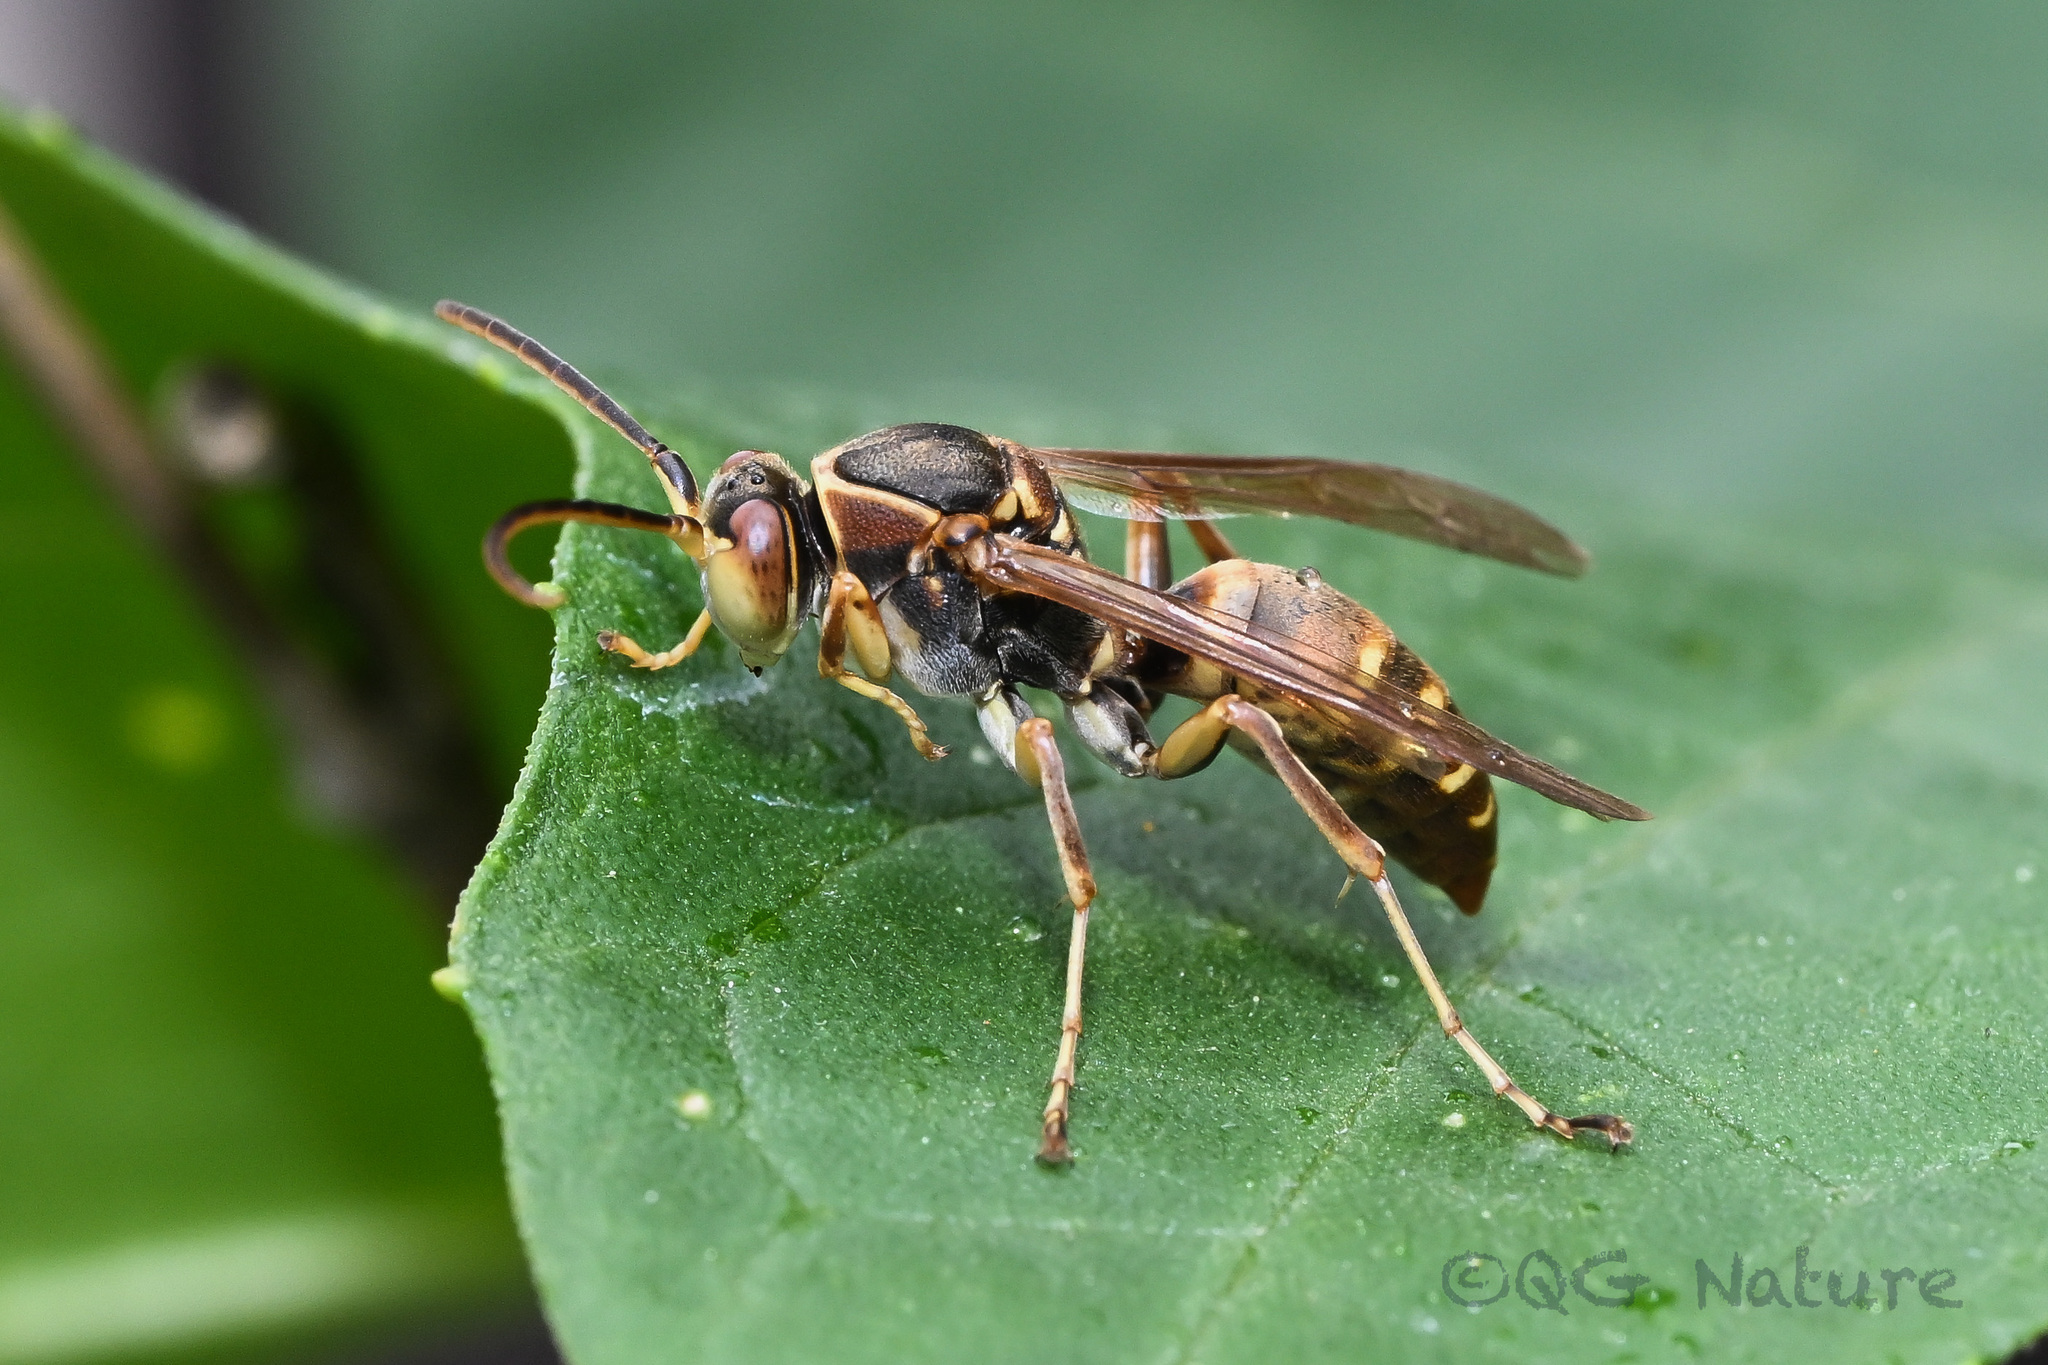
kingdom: Animalia
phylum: Arthropoda
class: Insecta
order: Hymenoptera
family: Eumenidae
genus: Polistes
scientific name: Polistes snelleni
